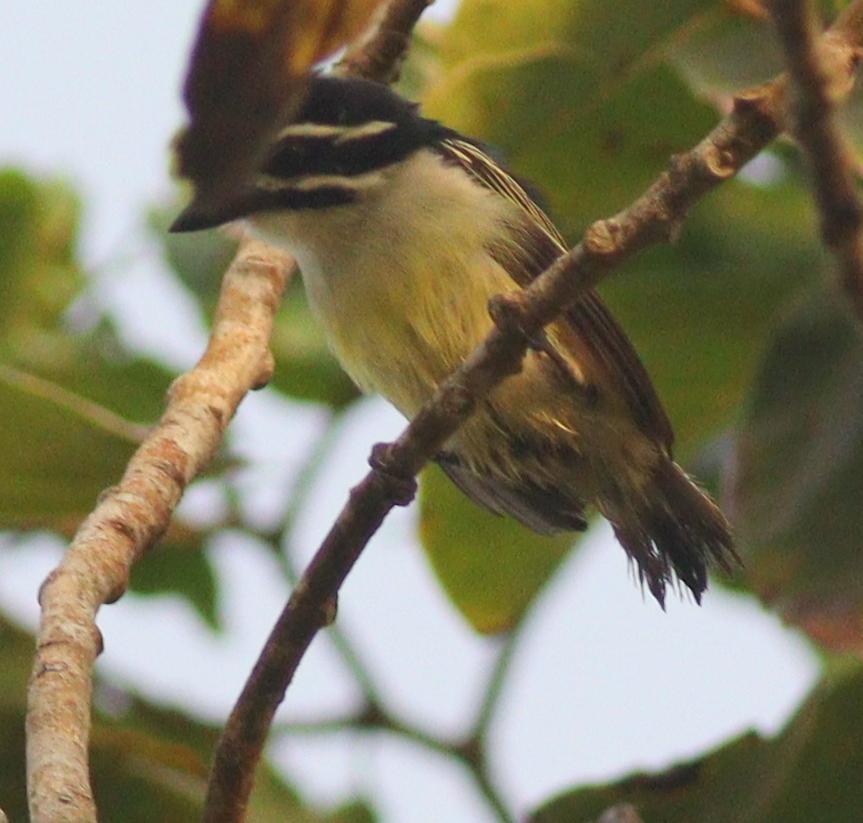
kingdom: Animalia
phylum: Chordata
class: Aves
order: Piciformes
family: Lybiidae
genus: Pogoniulus
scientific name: Pogoniulus bilineatus
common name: Yellow-rumped tinkerbird
